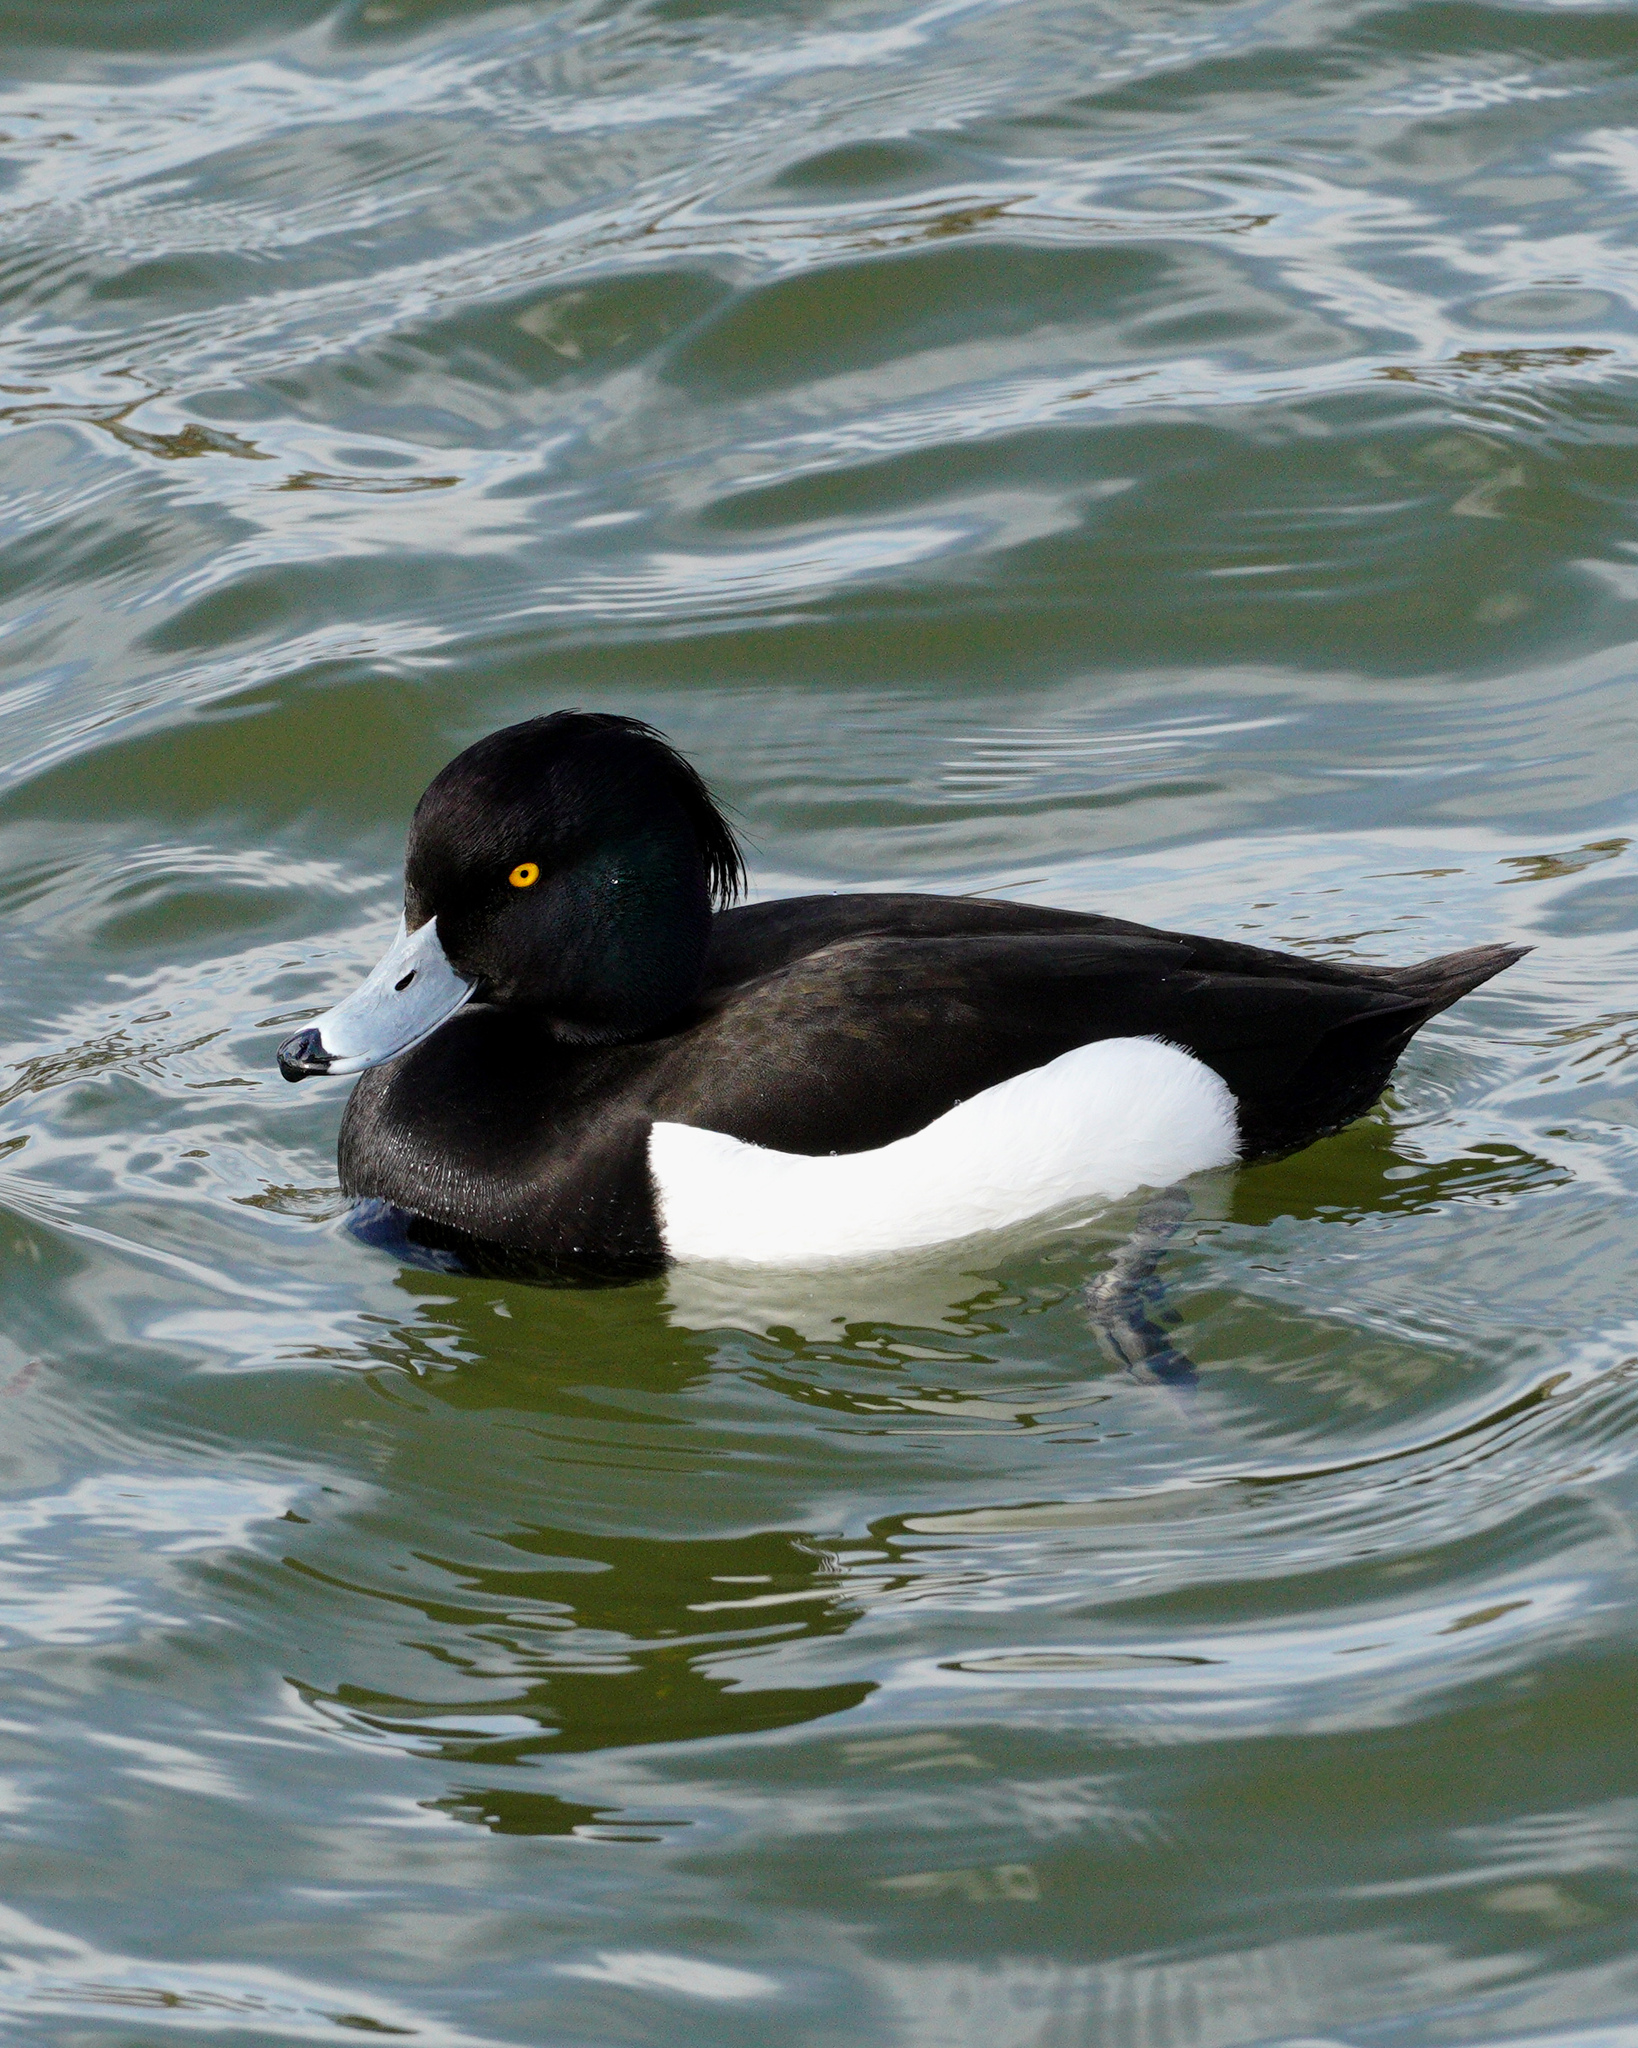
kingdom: Animalia
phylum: Chordata
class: Aves
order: Anseriformes
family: Anatidae
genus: Aythya
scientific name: Aythya fuligula
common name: Tufted duck
